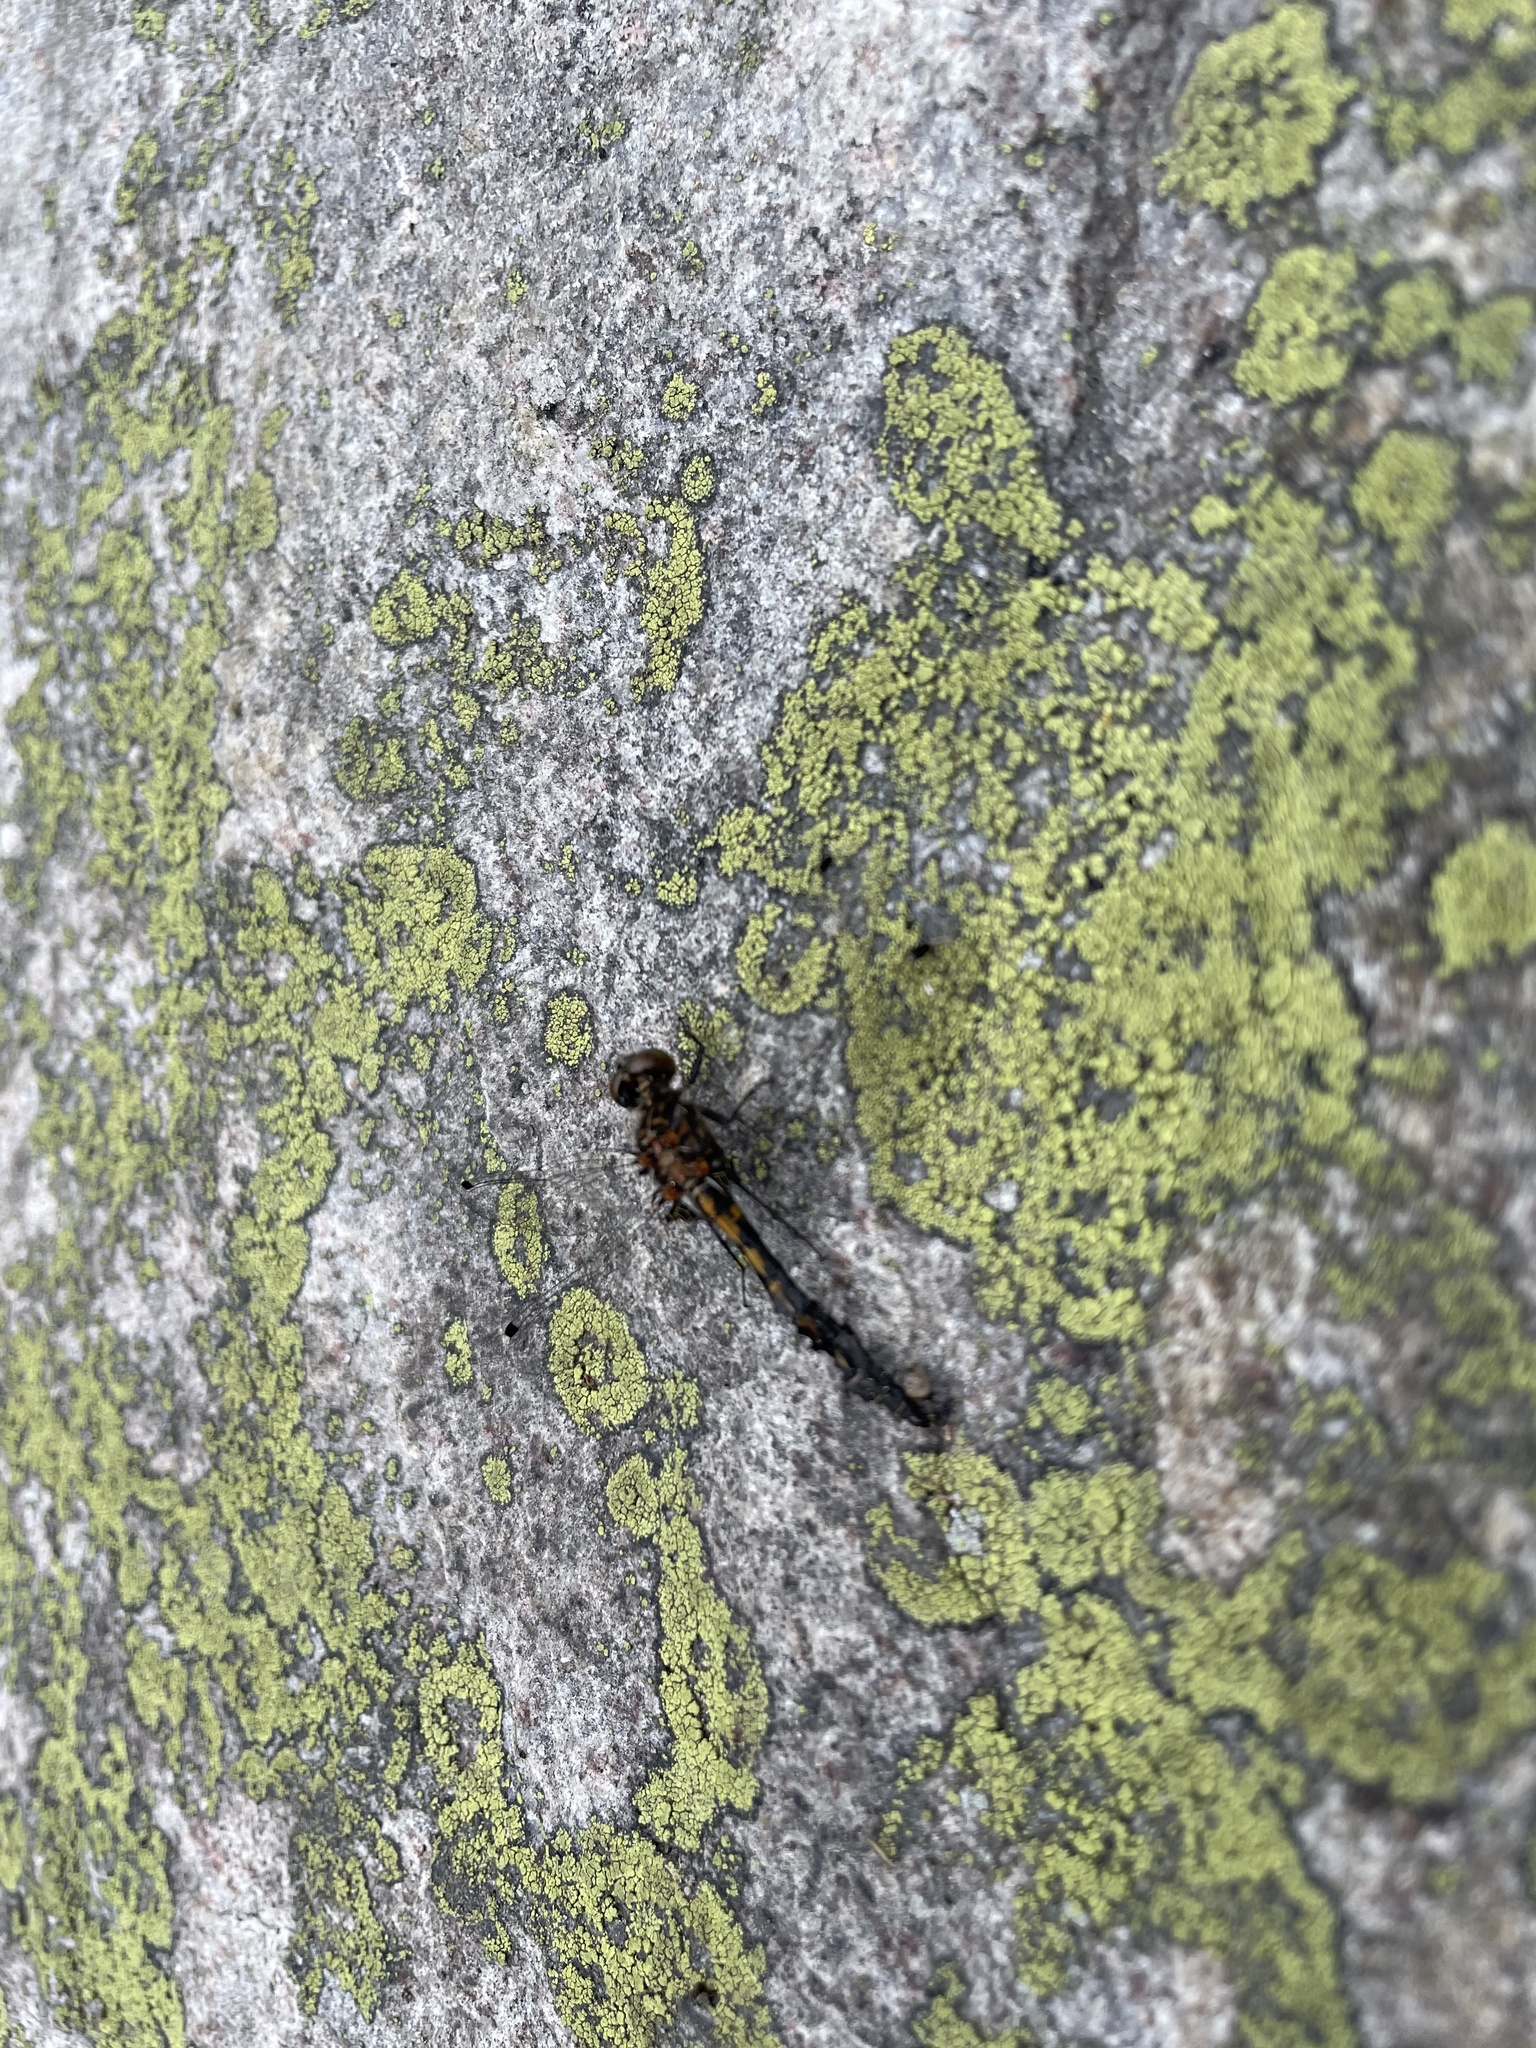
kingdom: Animalia
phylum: Arthropoda
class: Insecta
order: Odonata
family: Libellulidae
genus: Leucorrhinia
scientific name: Leucorrhinia hudsonica
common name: Hudsonian whiteface
